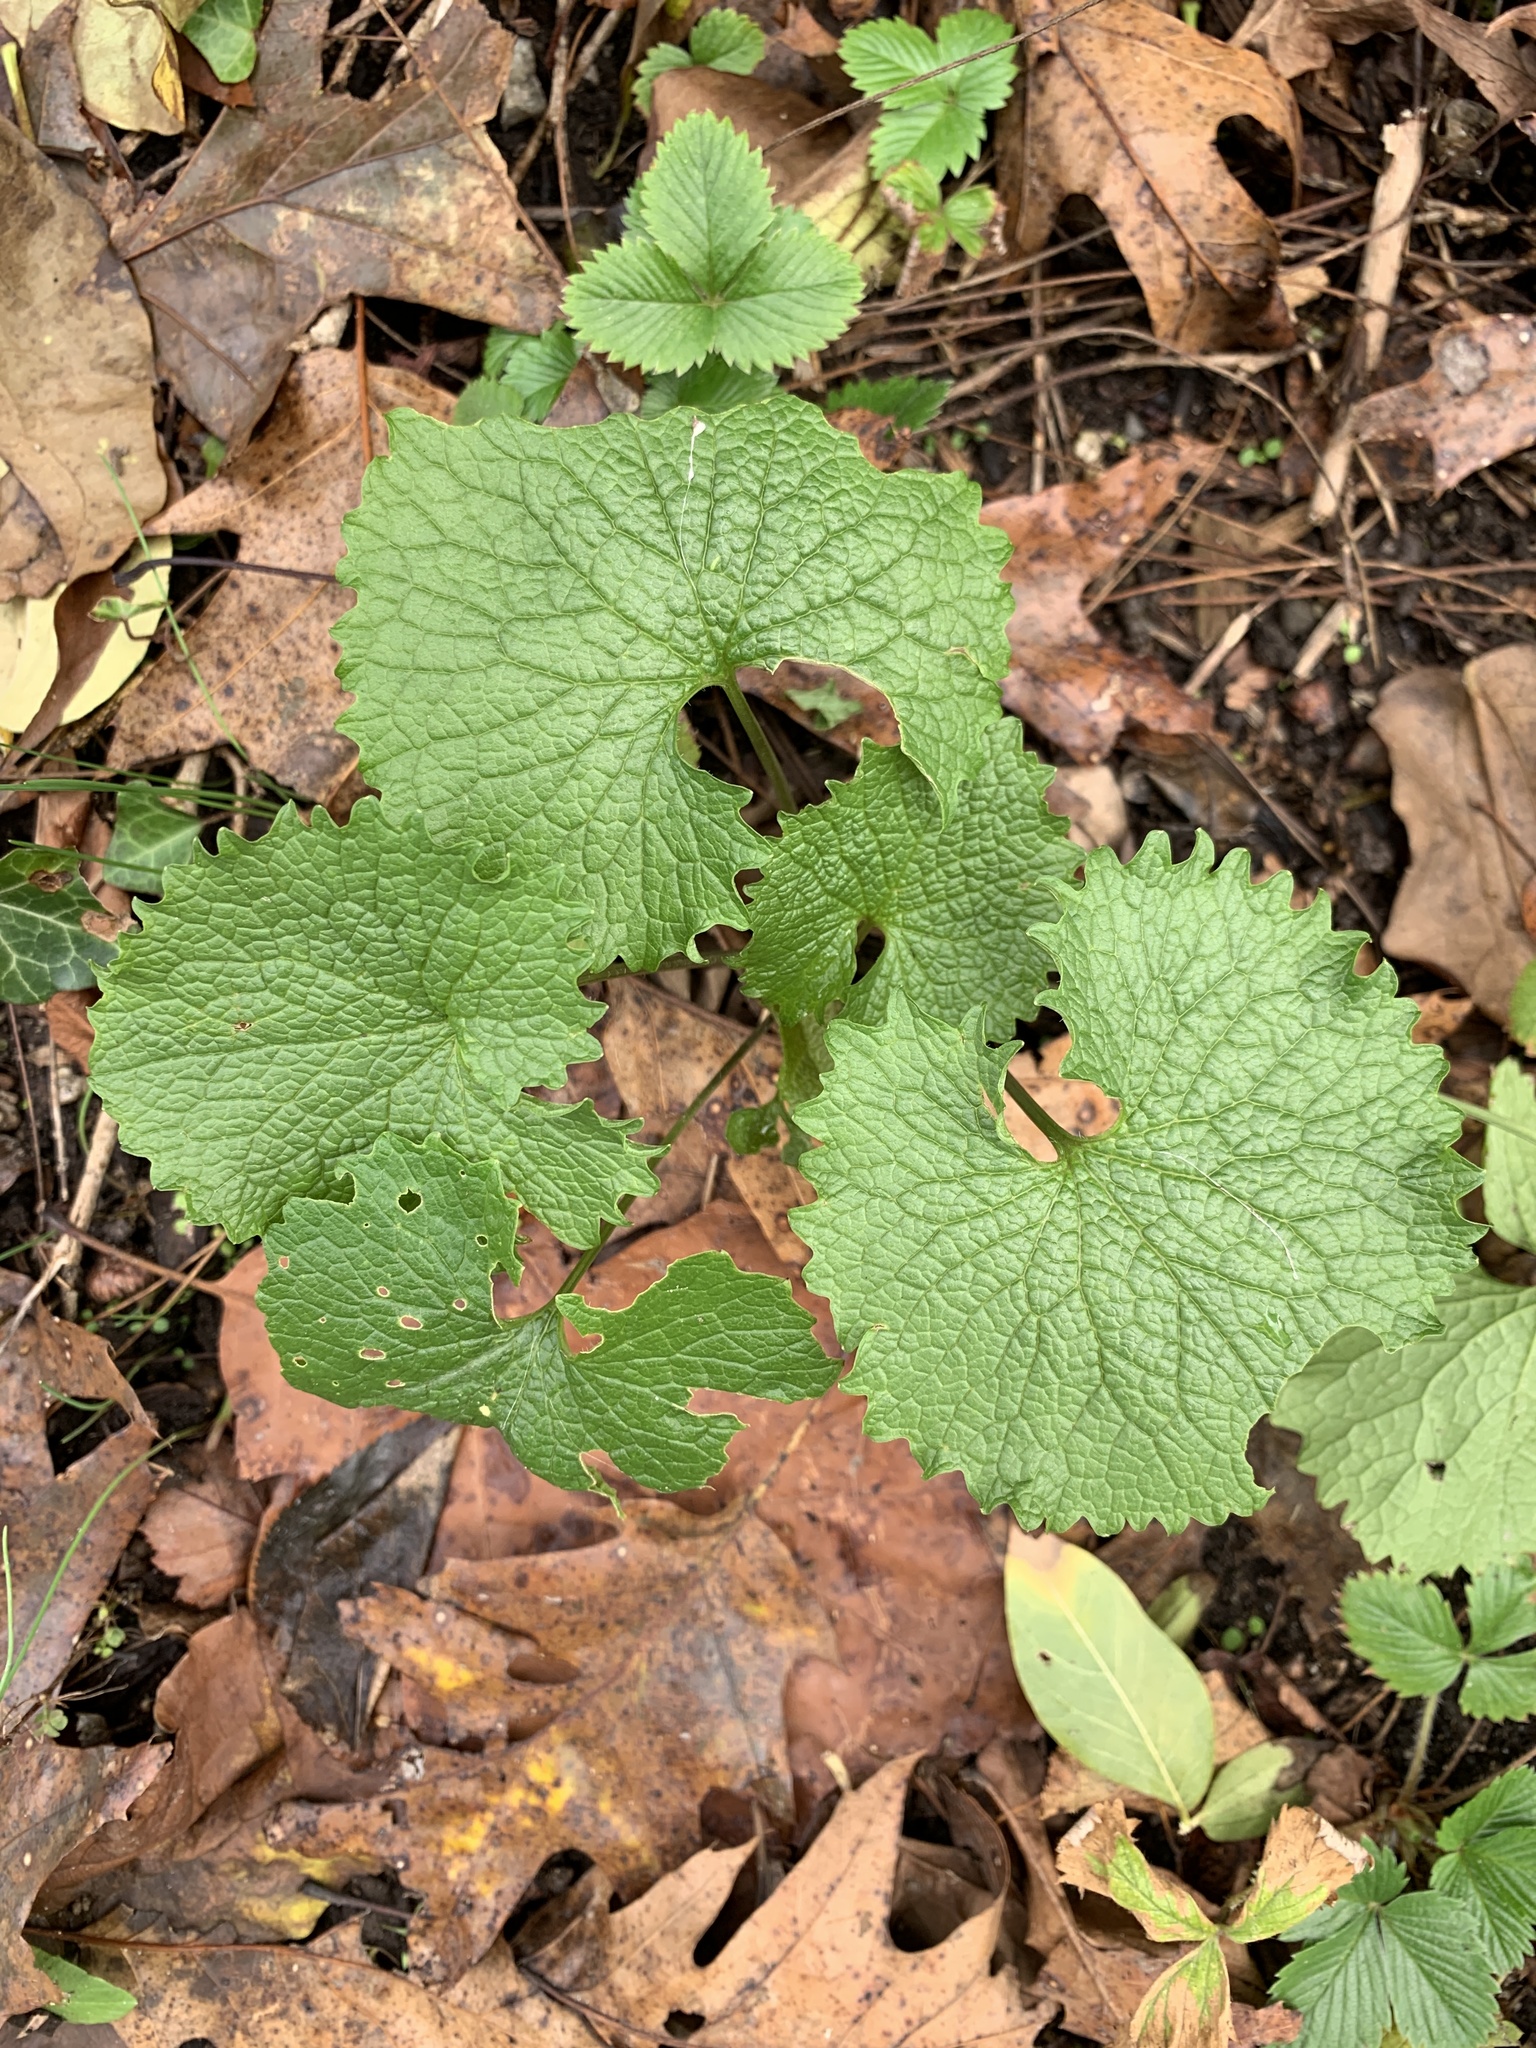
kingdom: Plantae
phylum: Tracheophyta
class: Magnoliopsida
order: Brassicales
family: Brassicaceae
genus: Alliaria
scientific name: Alliaria petiolata
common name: Garlic mustard
